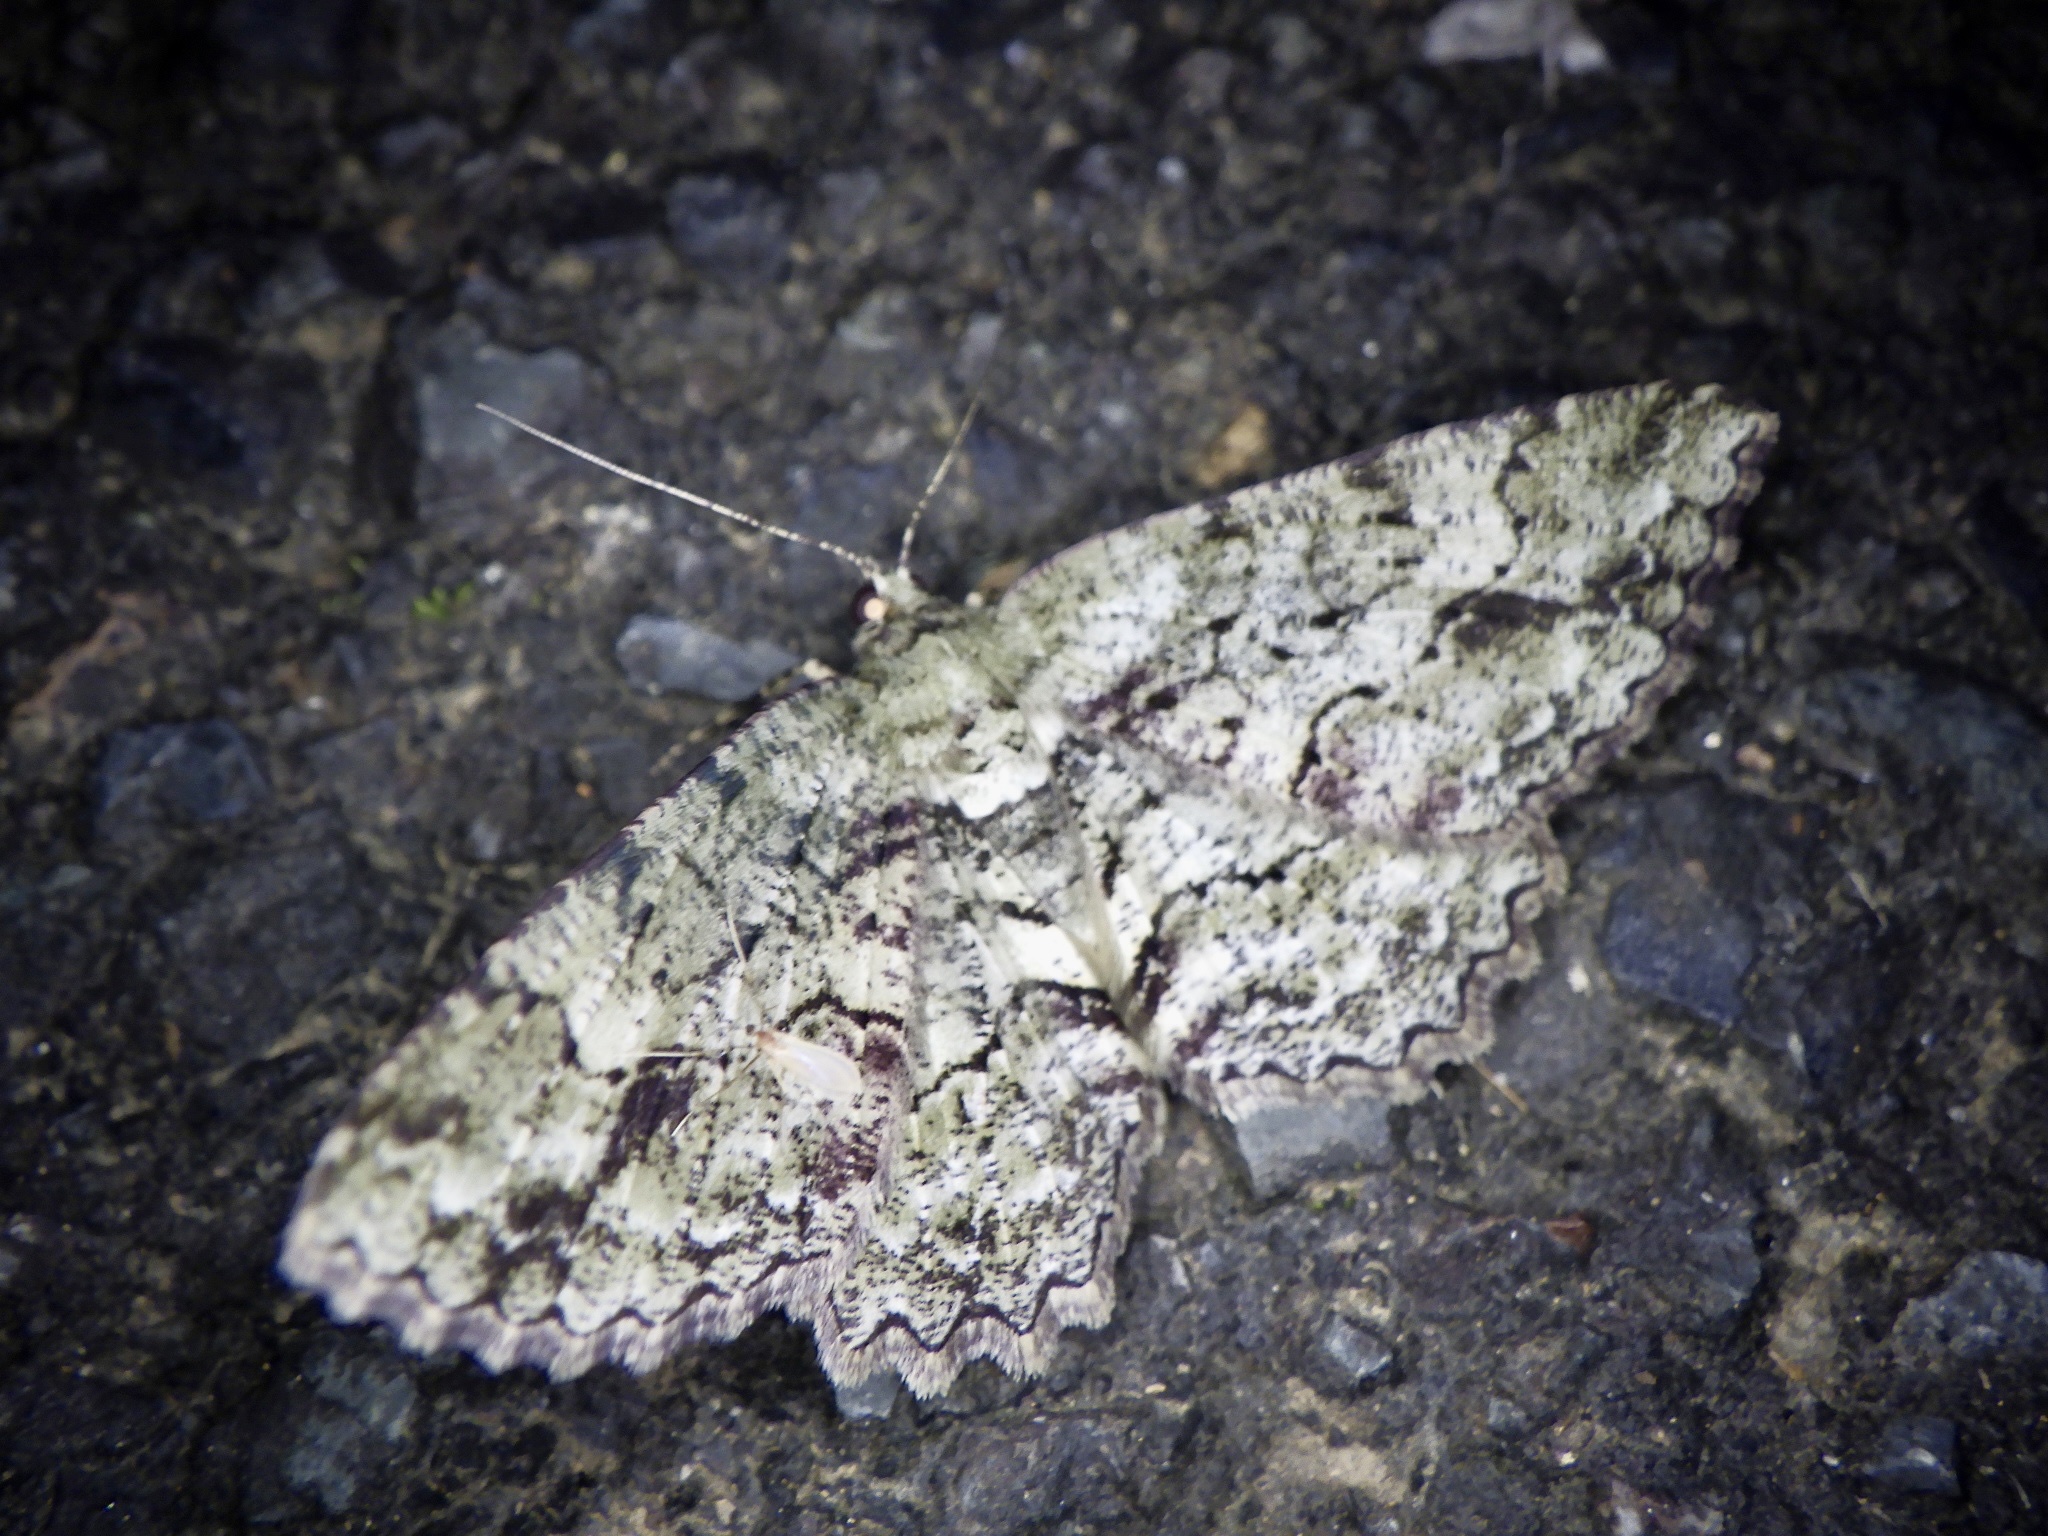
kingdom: Animalia
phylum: Arthropoda
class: Insecta
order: Lepidoptera
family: Geometridae
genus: Paradarisa
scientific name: Paradarisa chloauges
